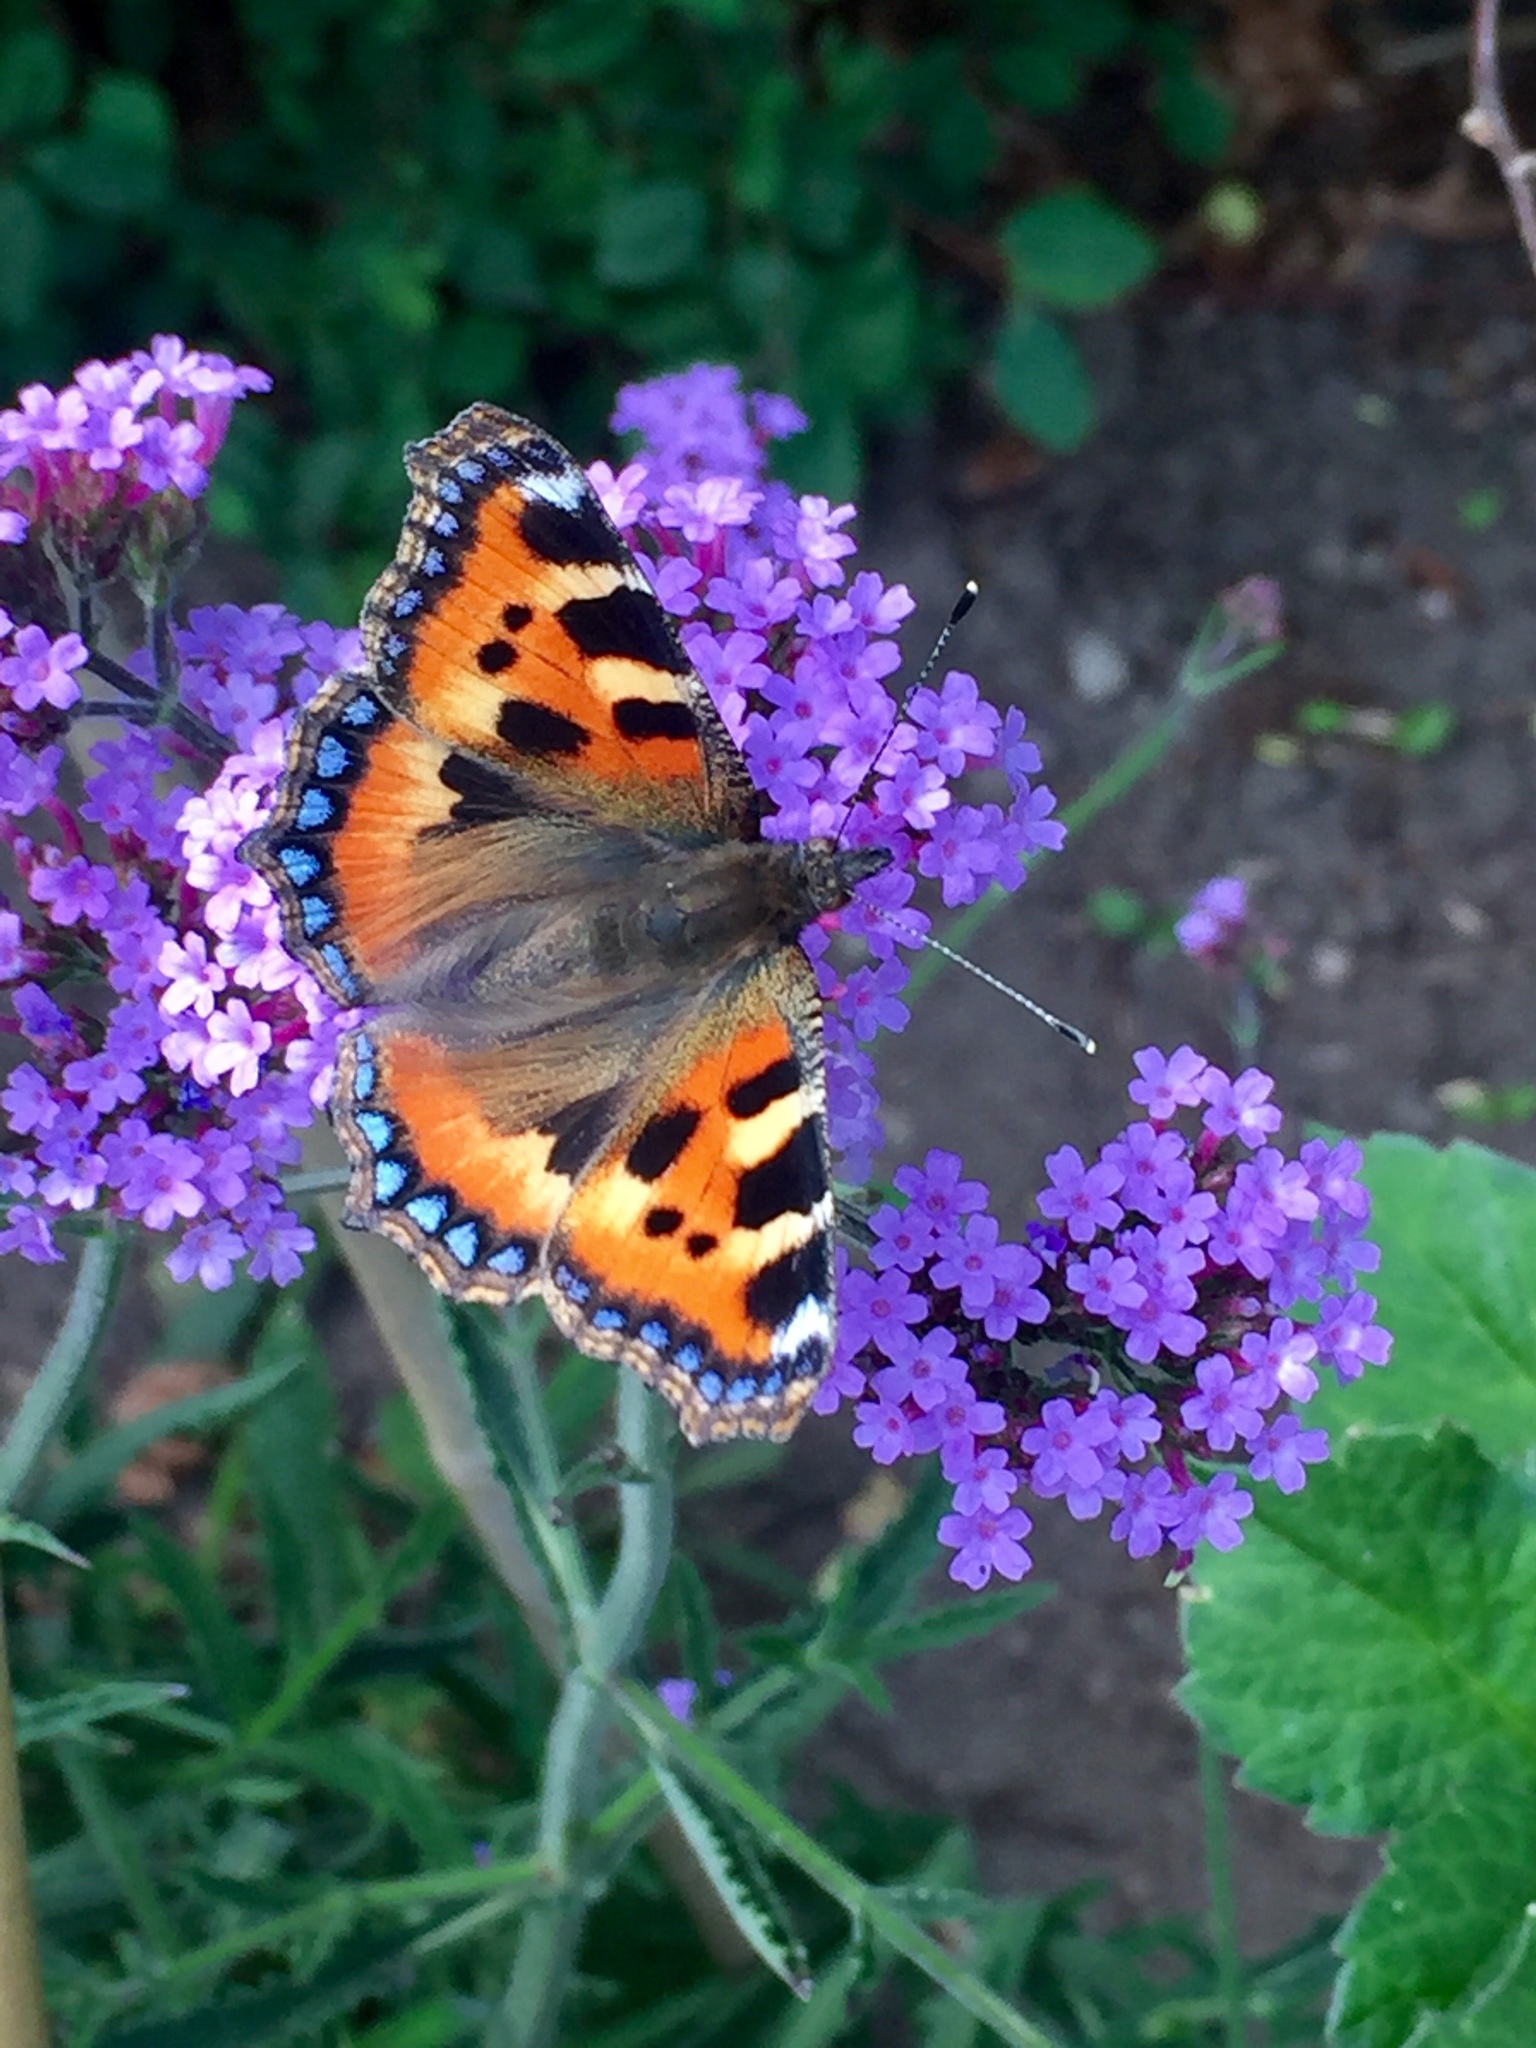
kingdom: Animalia
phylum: Arthropoda
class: Insecta
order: Lepidoptera
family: Nymphalidae
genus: Aglais
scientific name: Aglais urticae
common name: Small tortoiseshell
